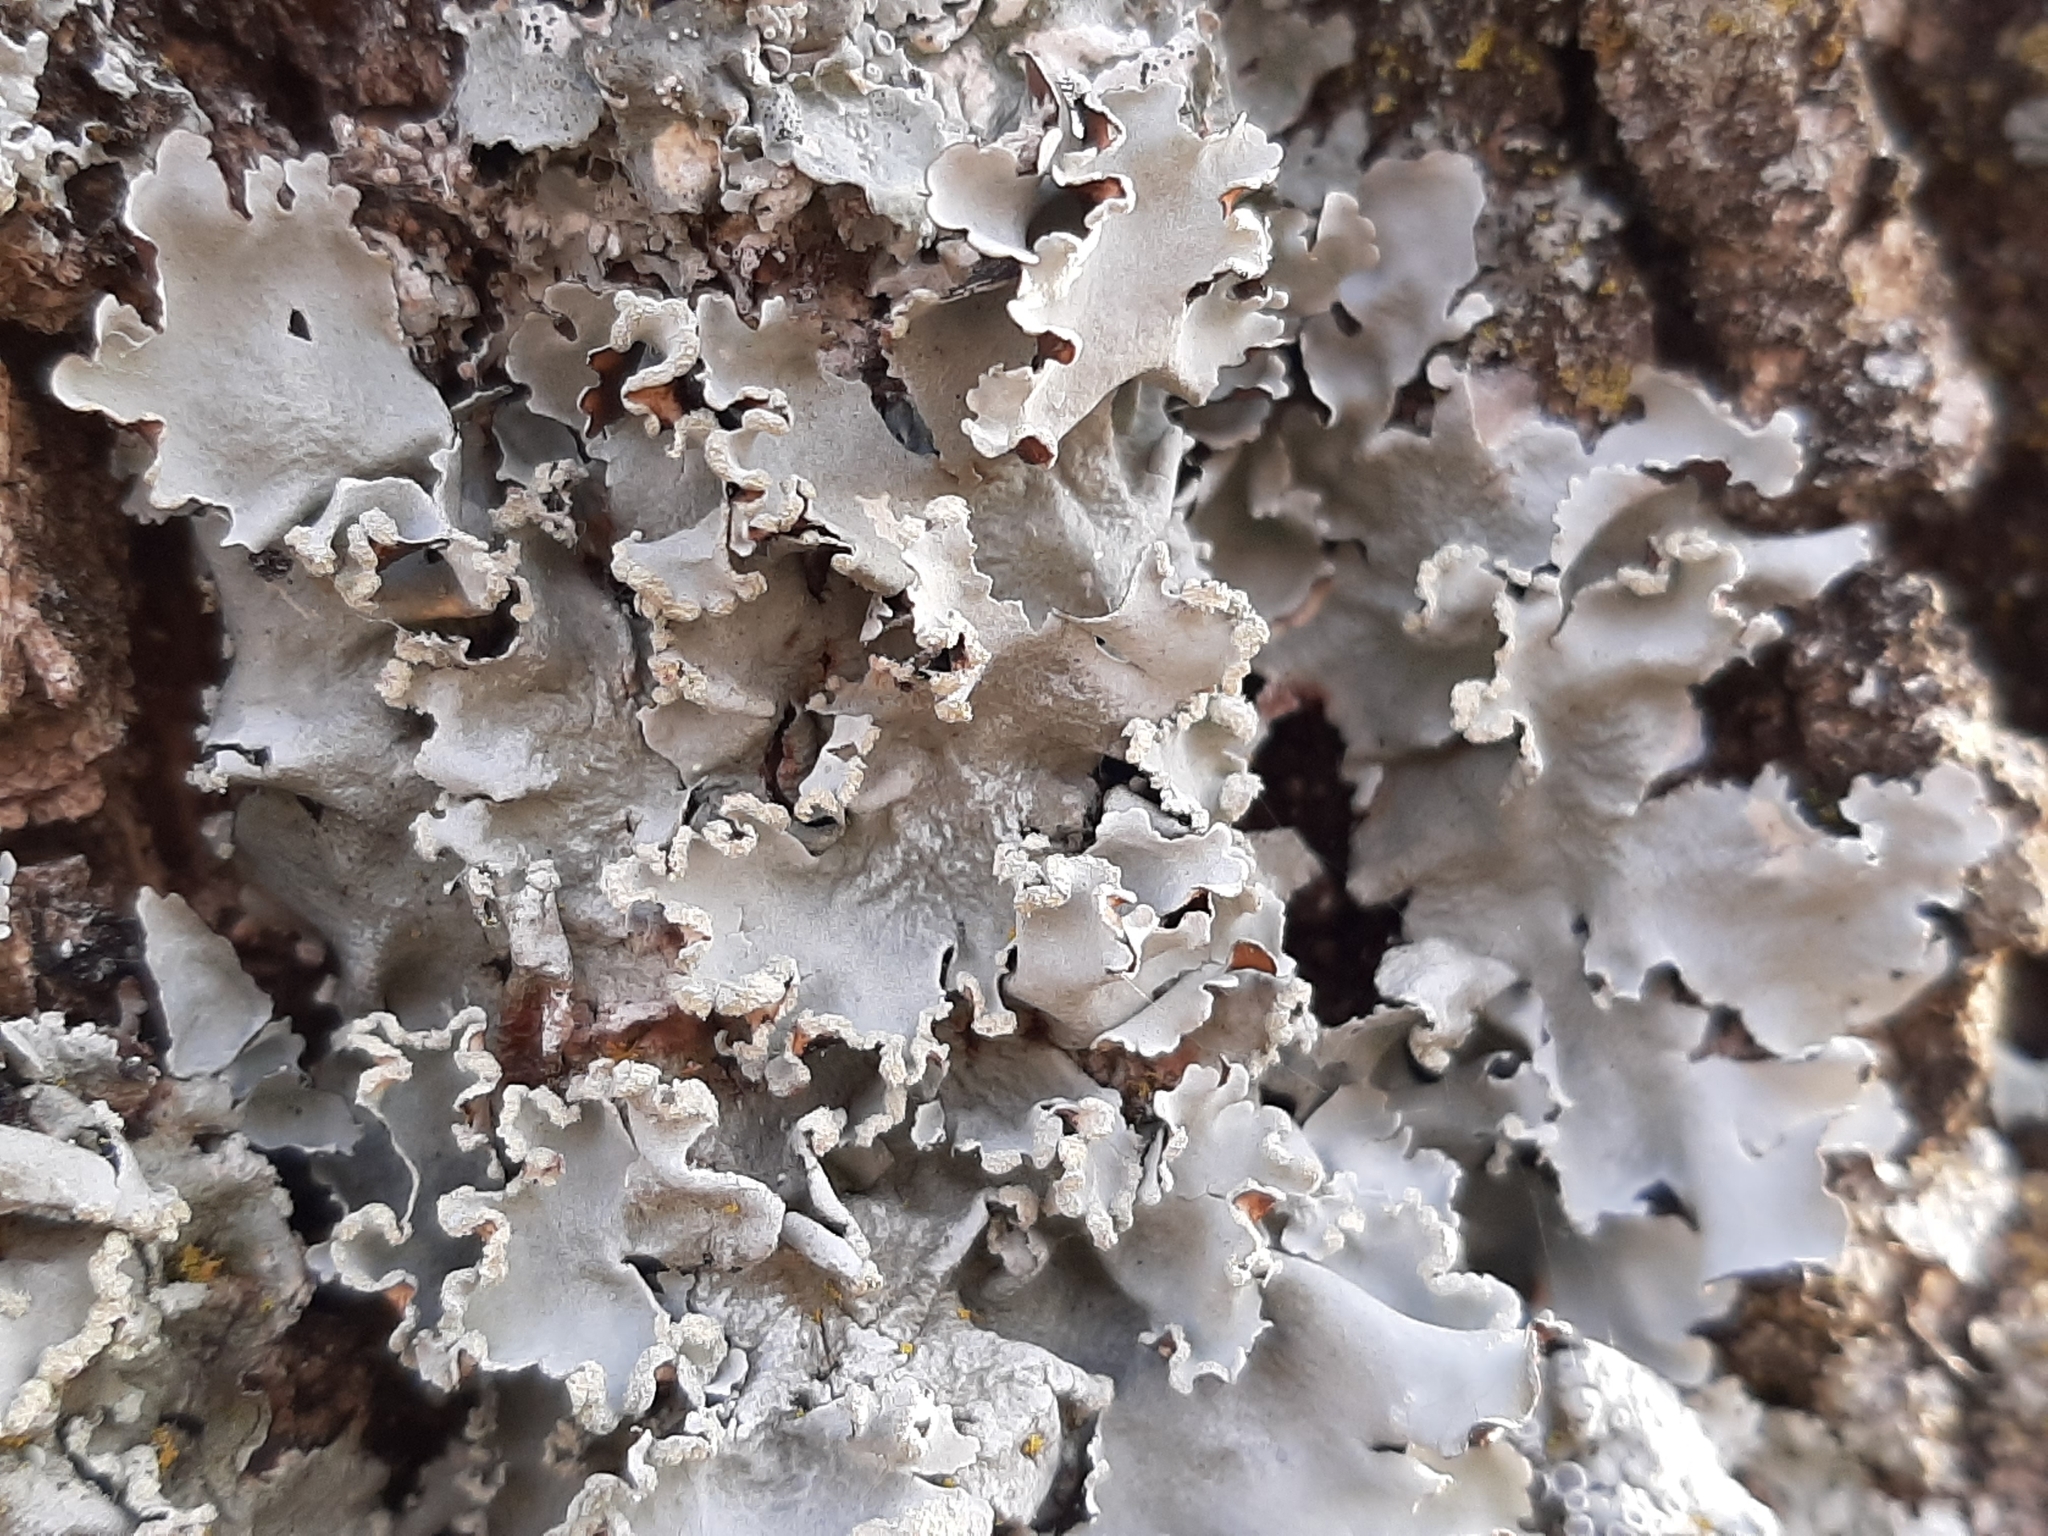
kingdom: Fungi
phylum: Ascomycota
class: Lecanoromycetes
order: Lecanorales
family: Parmeliaceae
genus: Parmotrema
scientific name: Parmotrema reticulatum
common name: Black sheet lichen
